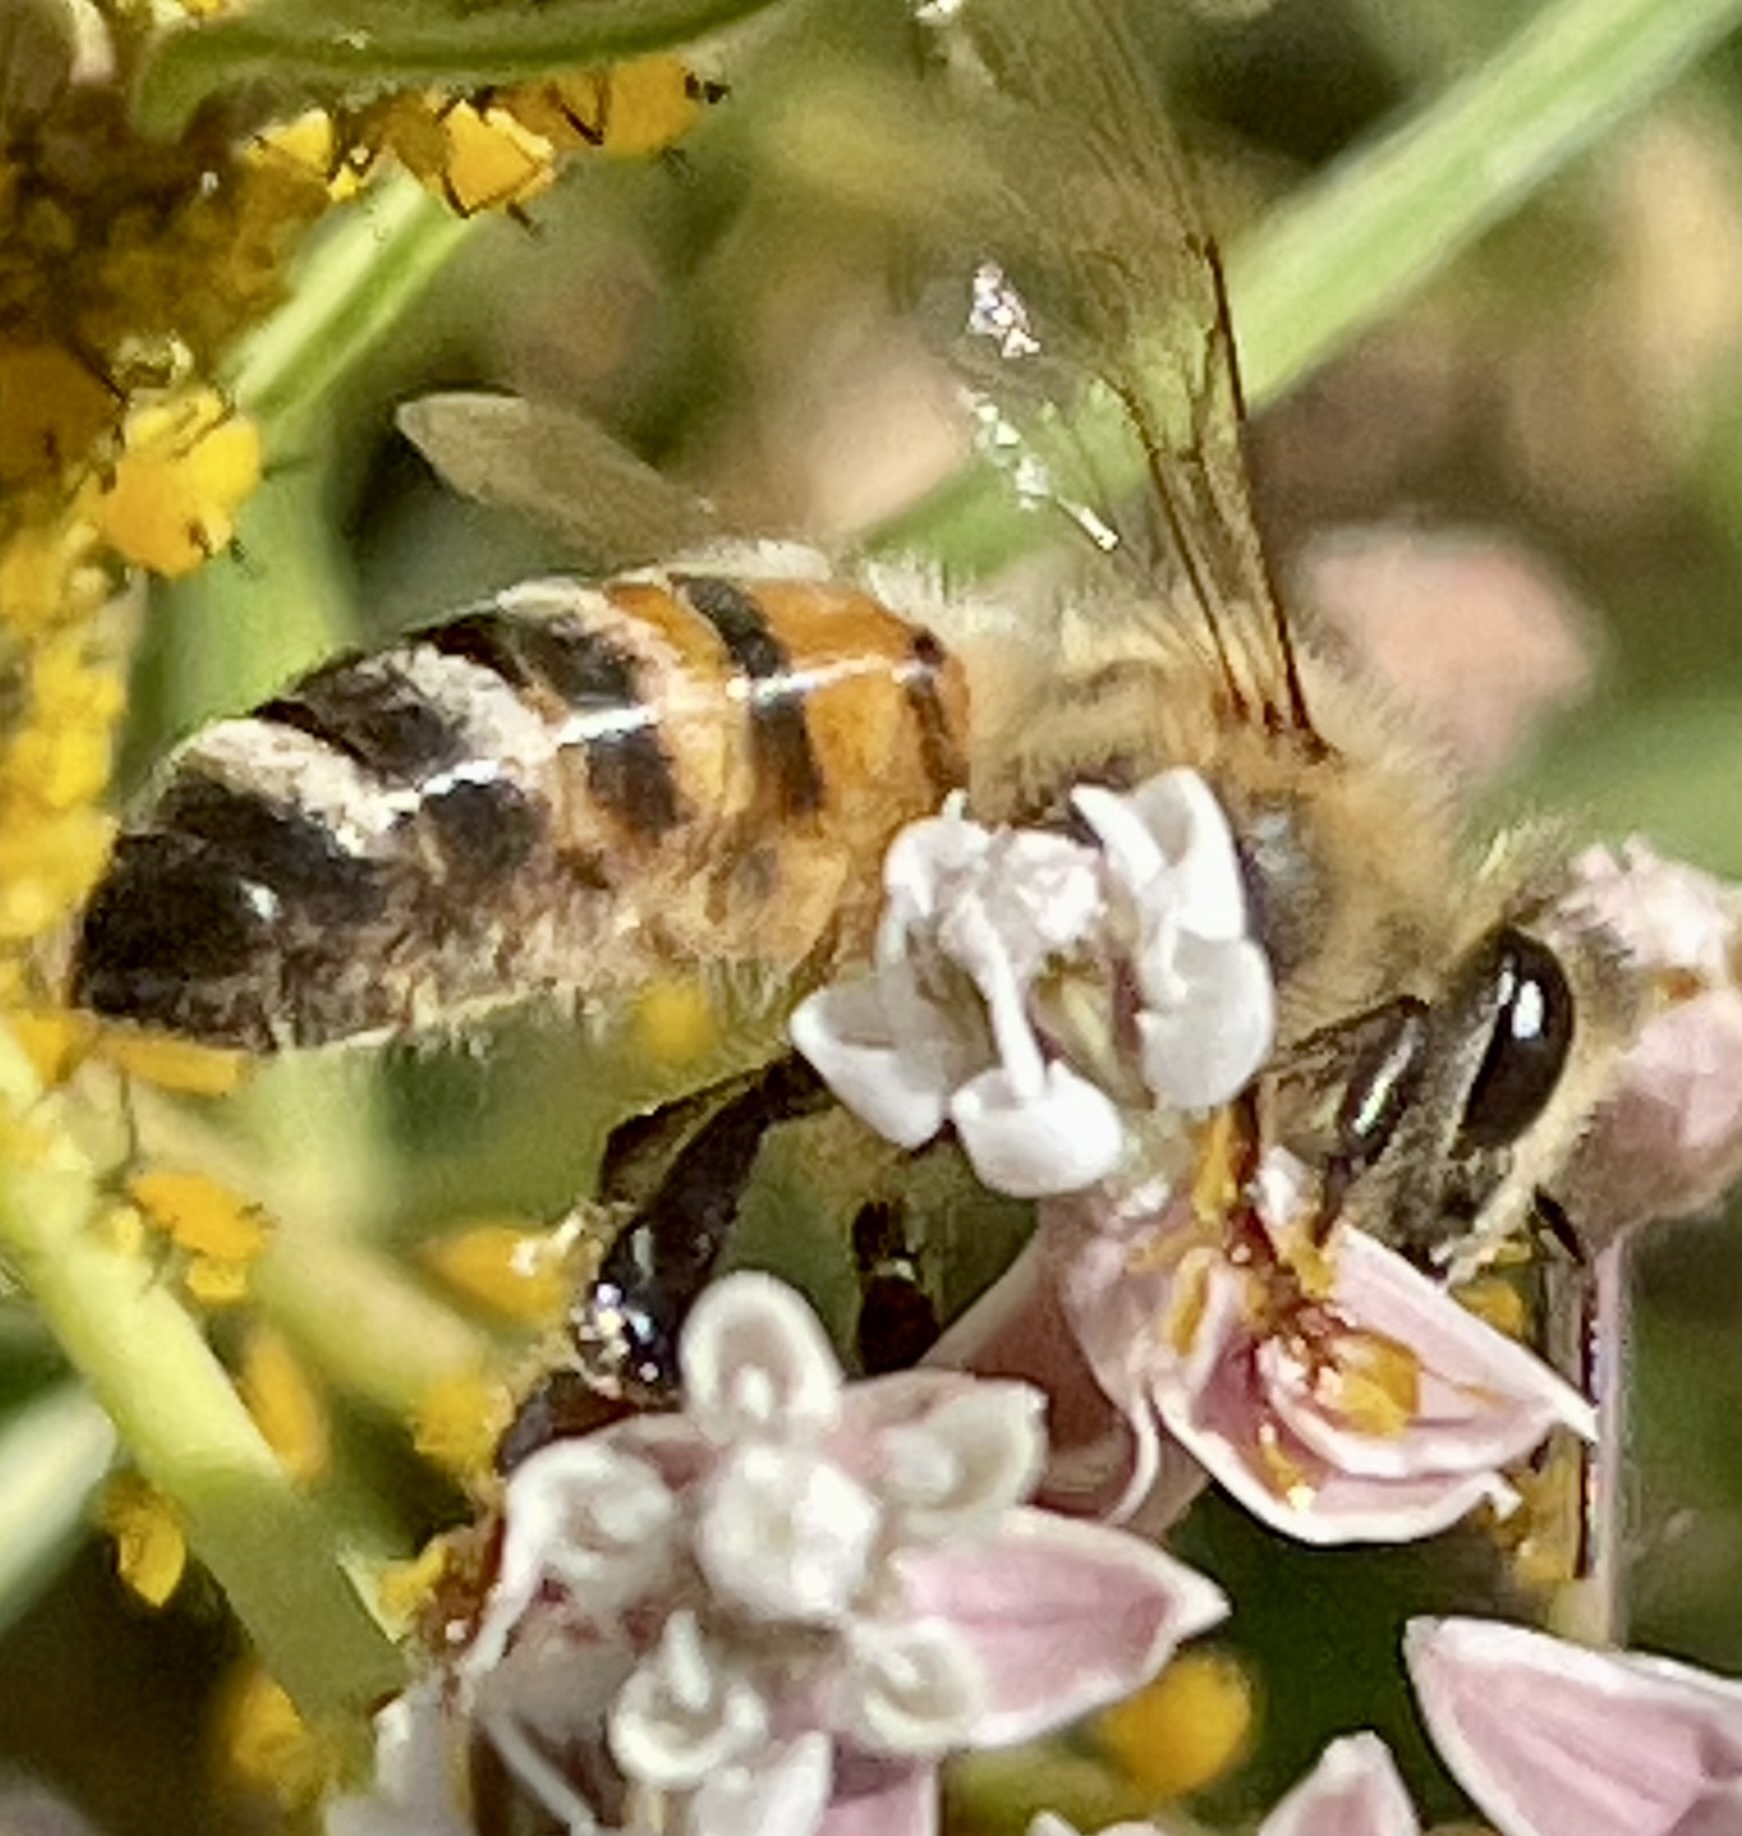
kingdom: Animalia
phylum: Arthropoda
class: Insecta
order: Hymenoptera
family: Apidae
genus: Apis
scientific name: Apis mellifera
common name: Honey bee
